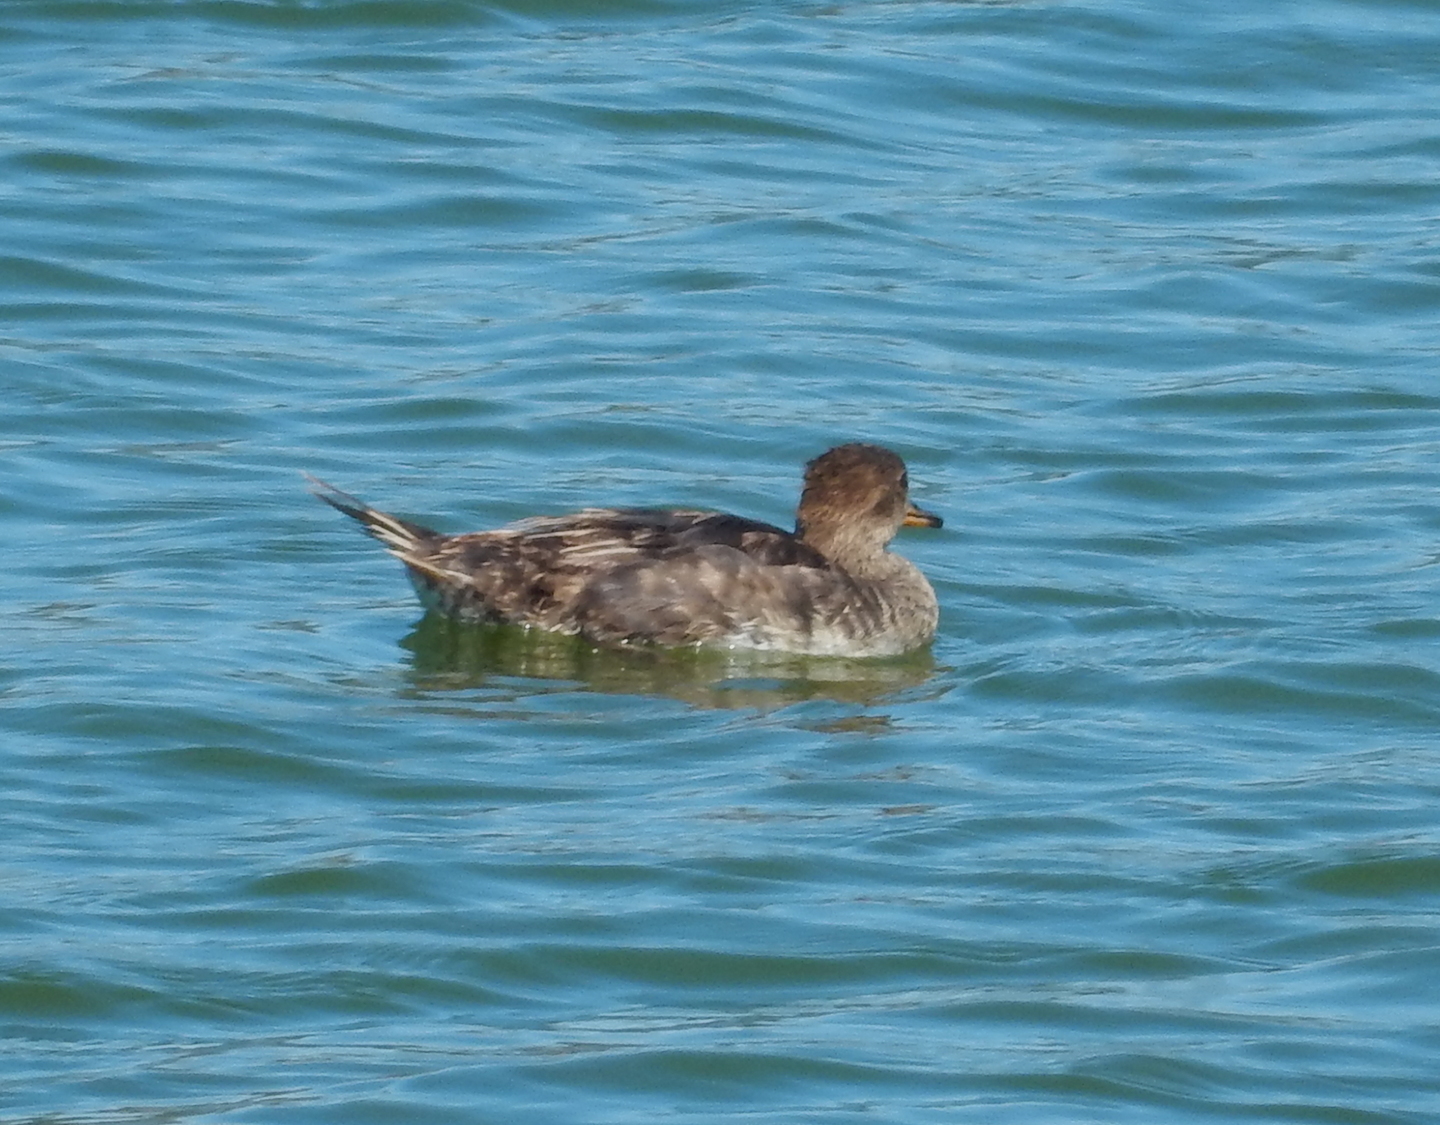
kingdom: Animalia
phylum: Chordata
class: Aves
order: Anseriformes
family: Anatidae
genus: Lophodytes
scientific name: Lophodytes cucullatus
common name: Hooded merganser
